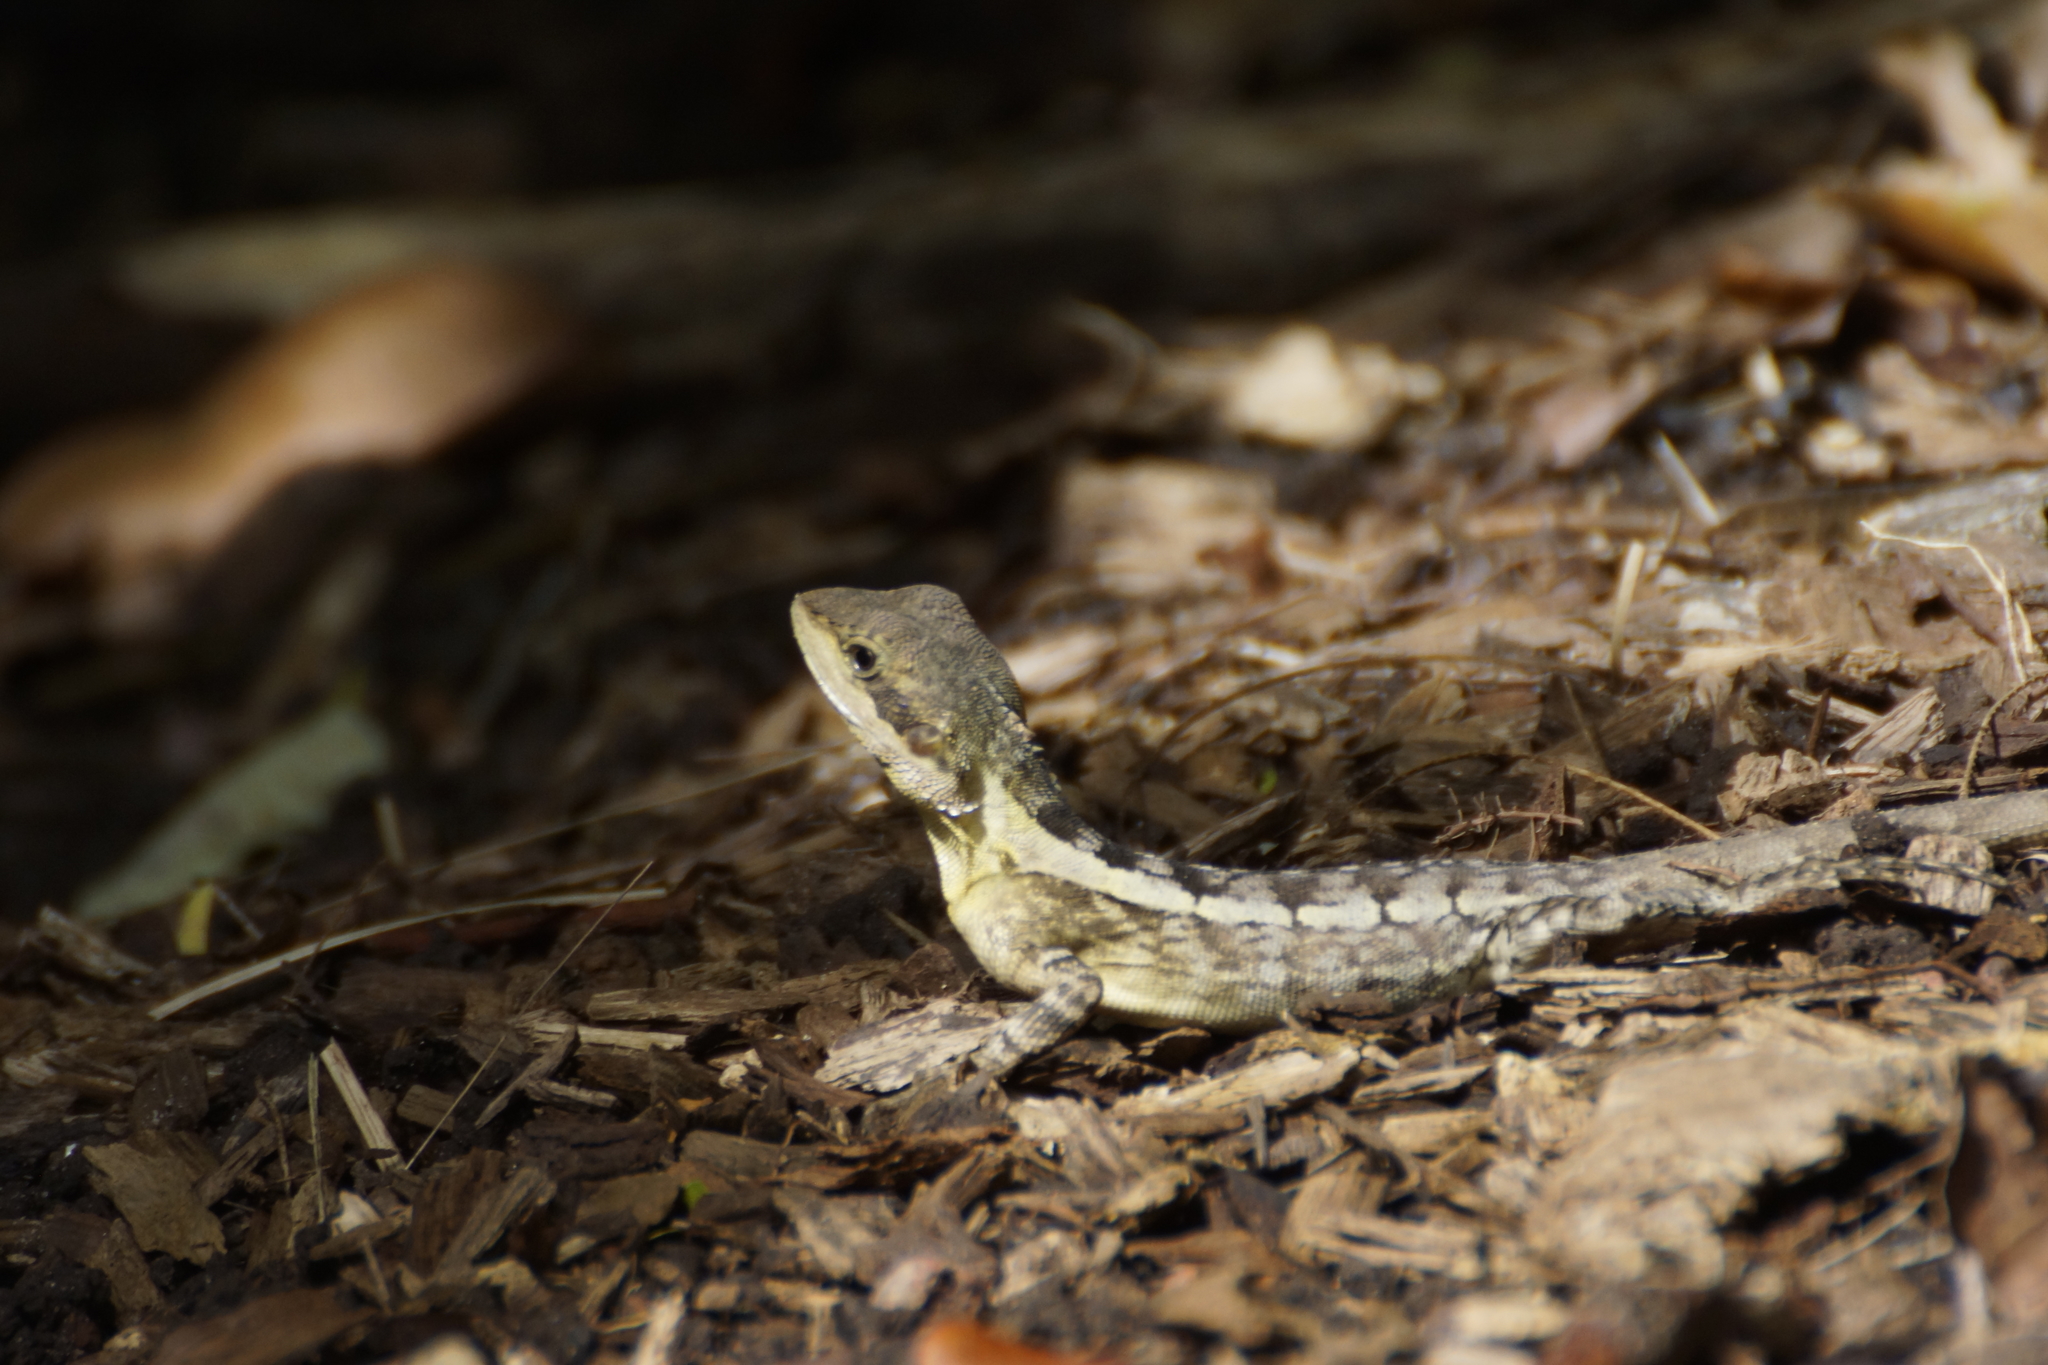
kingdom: Animalia
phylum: Chordata
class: Squamata
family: Agamidae
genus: Tropicagama
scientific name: Tropicagama temporalis
